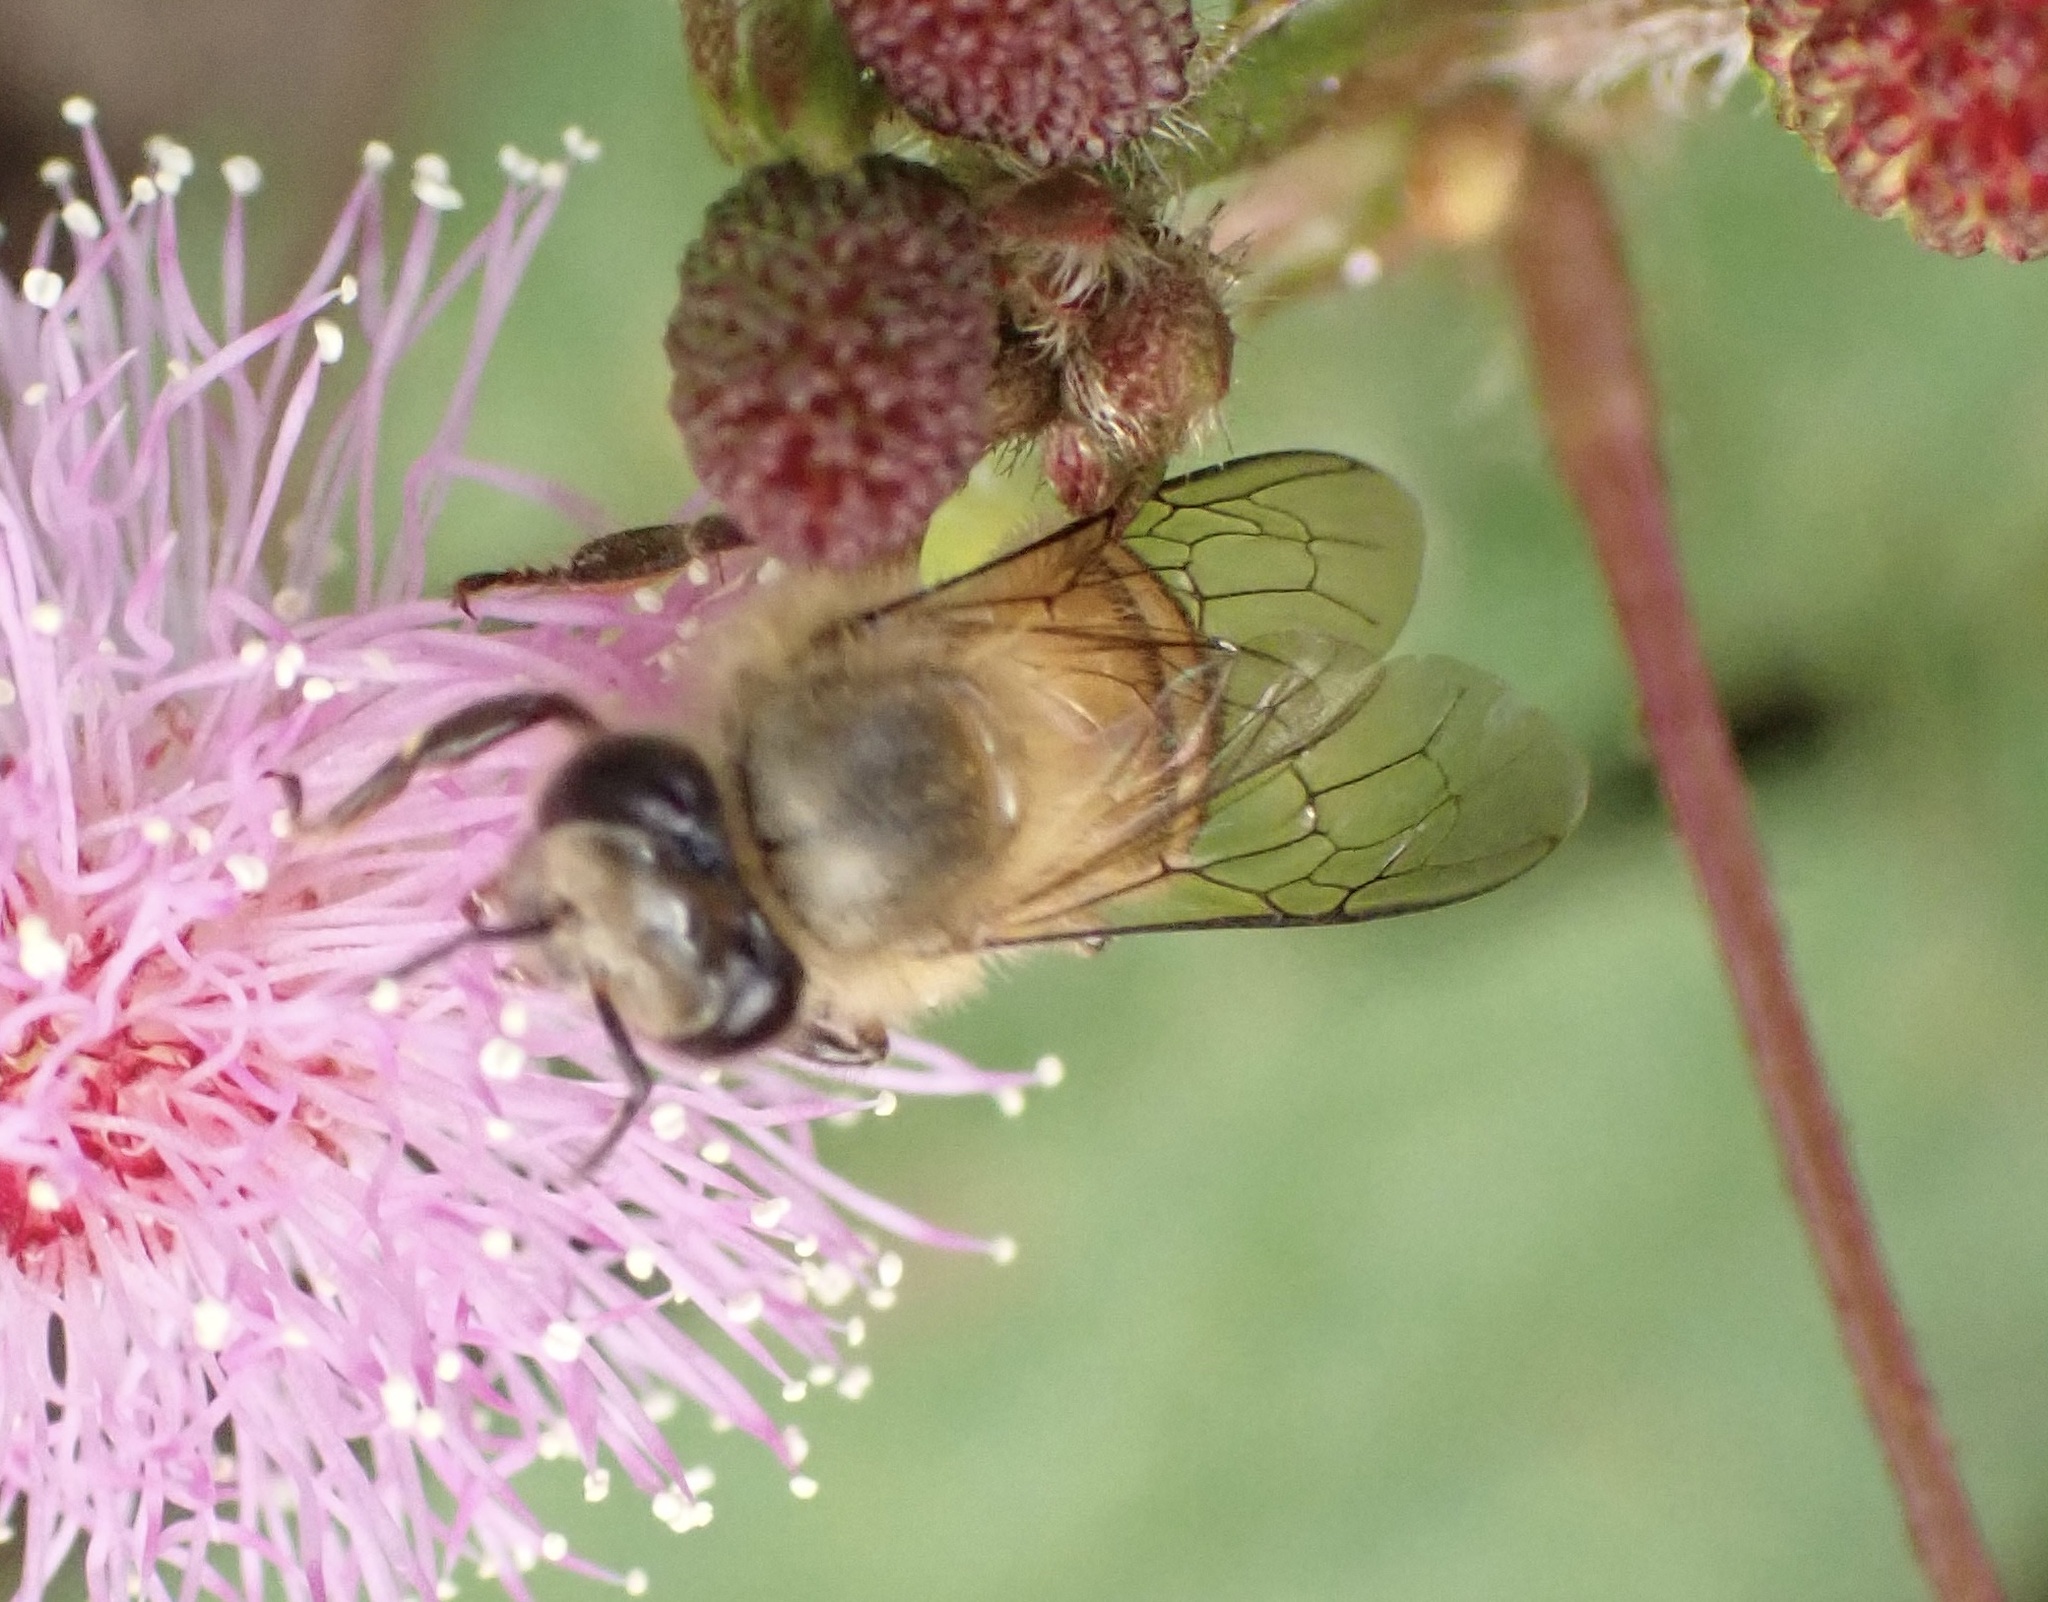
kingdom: Animalia
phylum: Arthropoda
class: Insecta
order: Hymenoptera
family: Apidae
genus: Apis
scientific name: Apis nigrocincta
